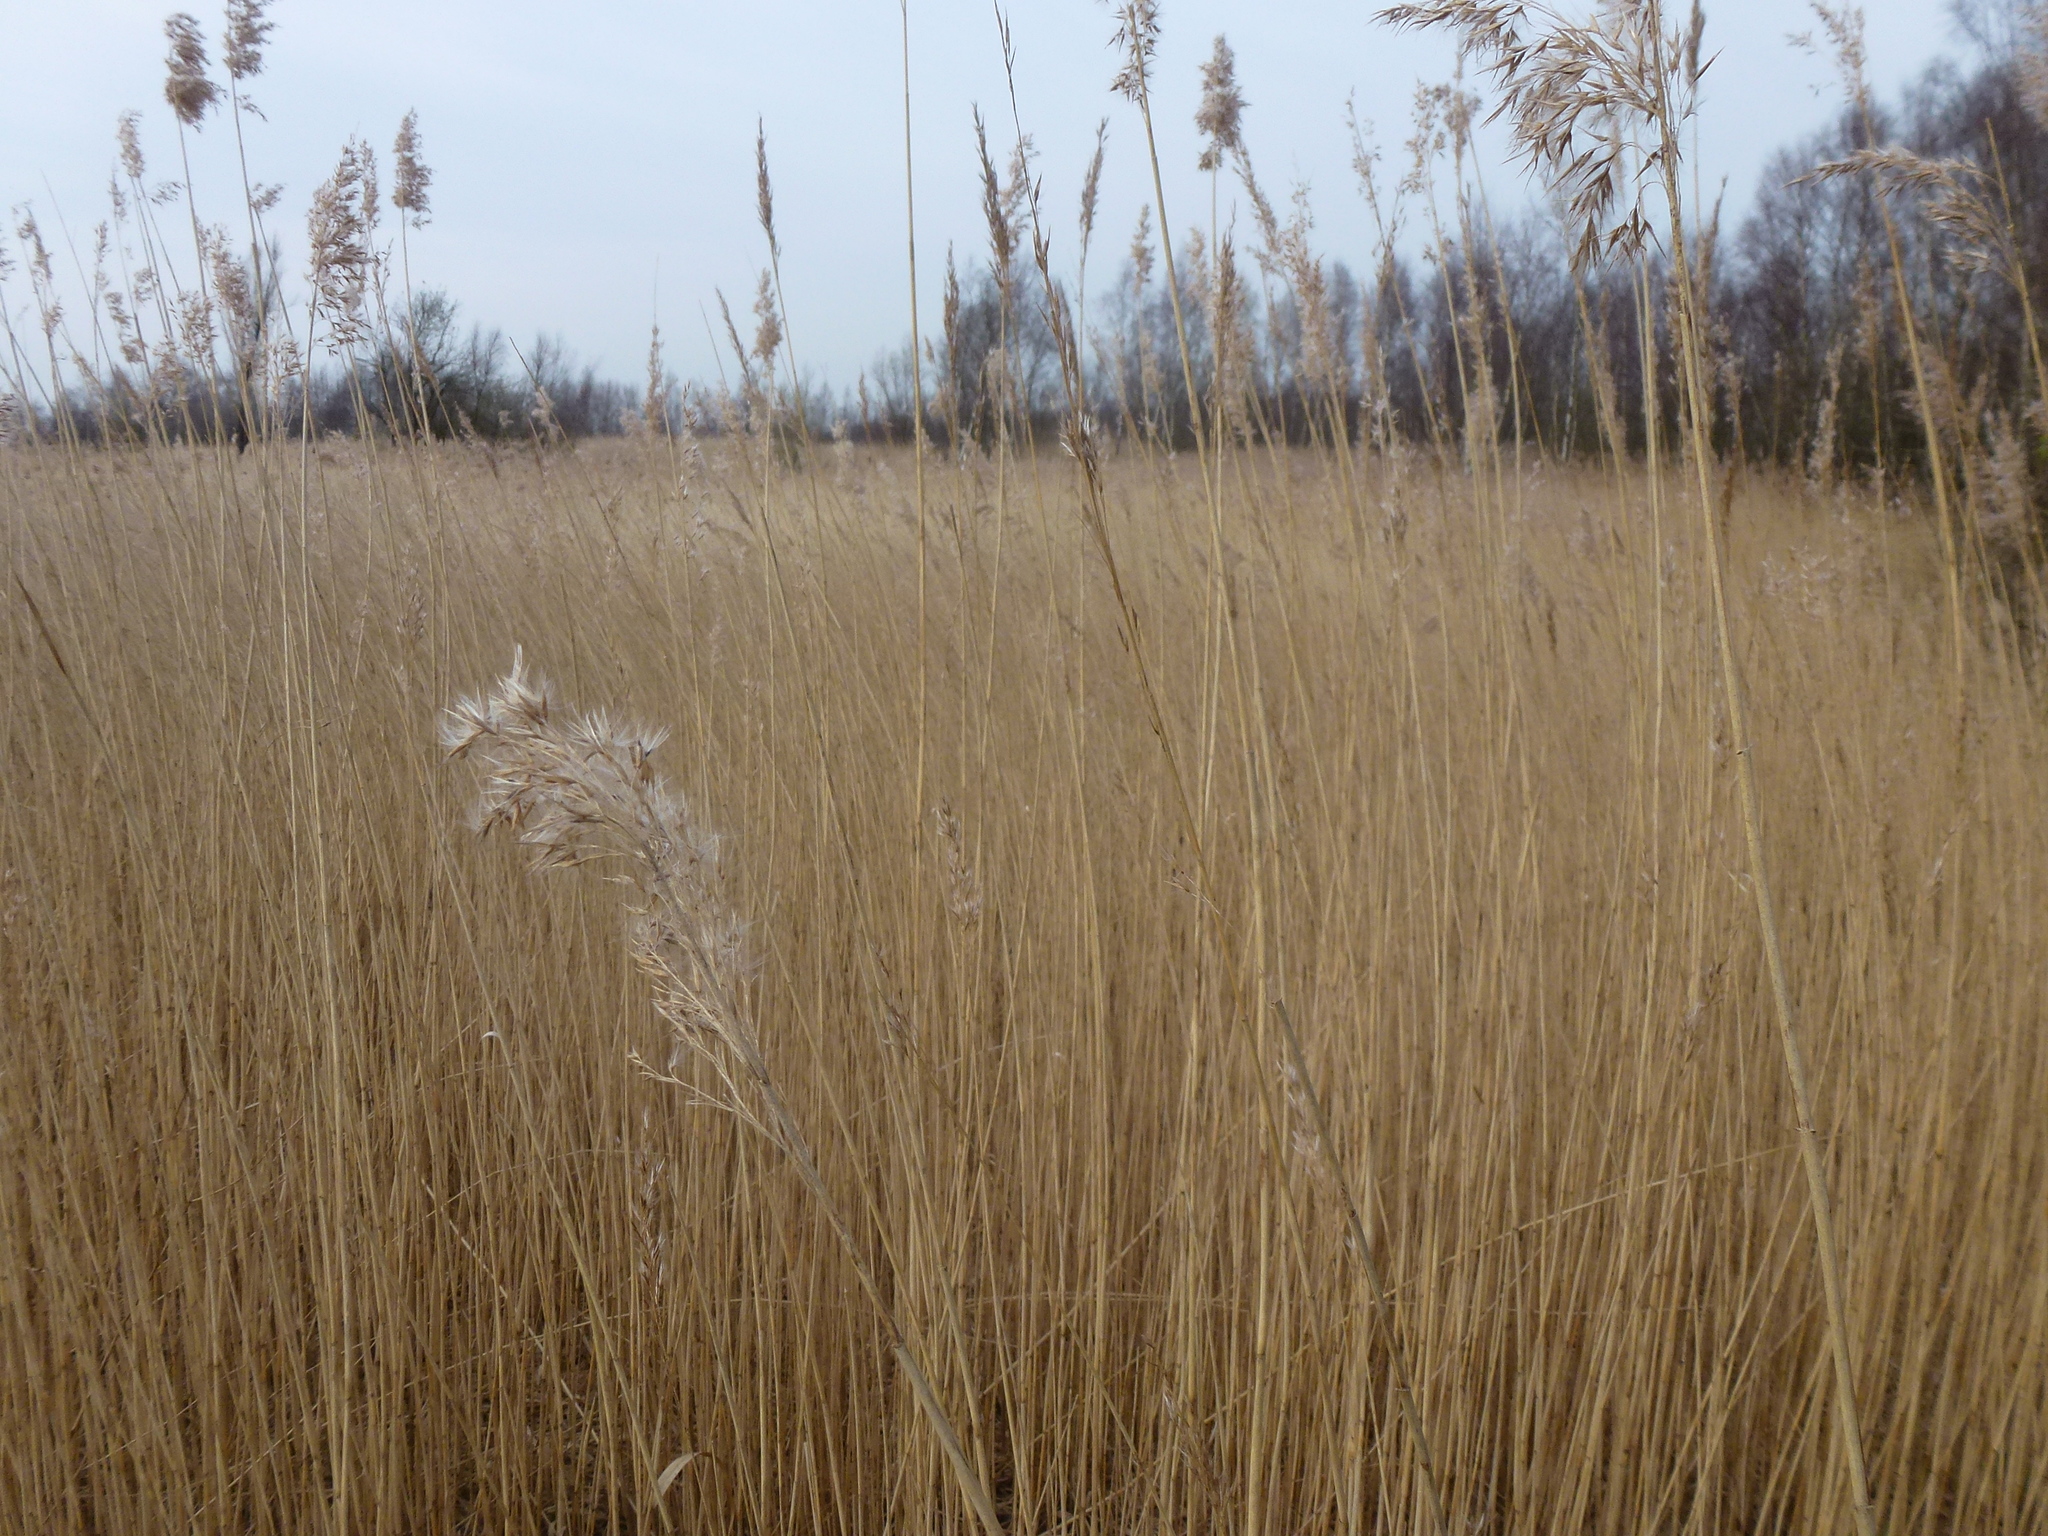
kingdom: Plantae
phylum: Tracheophyta
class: Liliopsida
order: Poales
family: Poaceae
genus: Phragmites
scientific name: Phragmites australis
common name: Common reed
